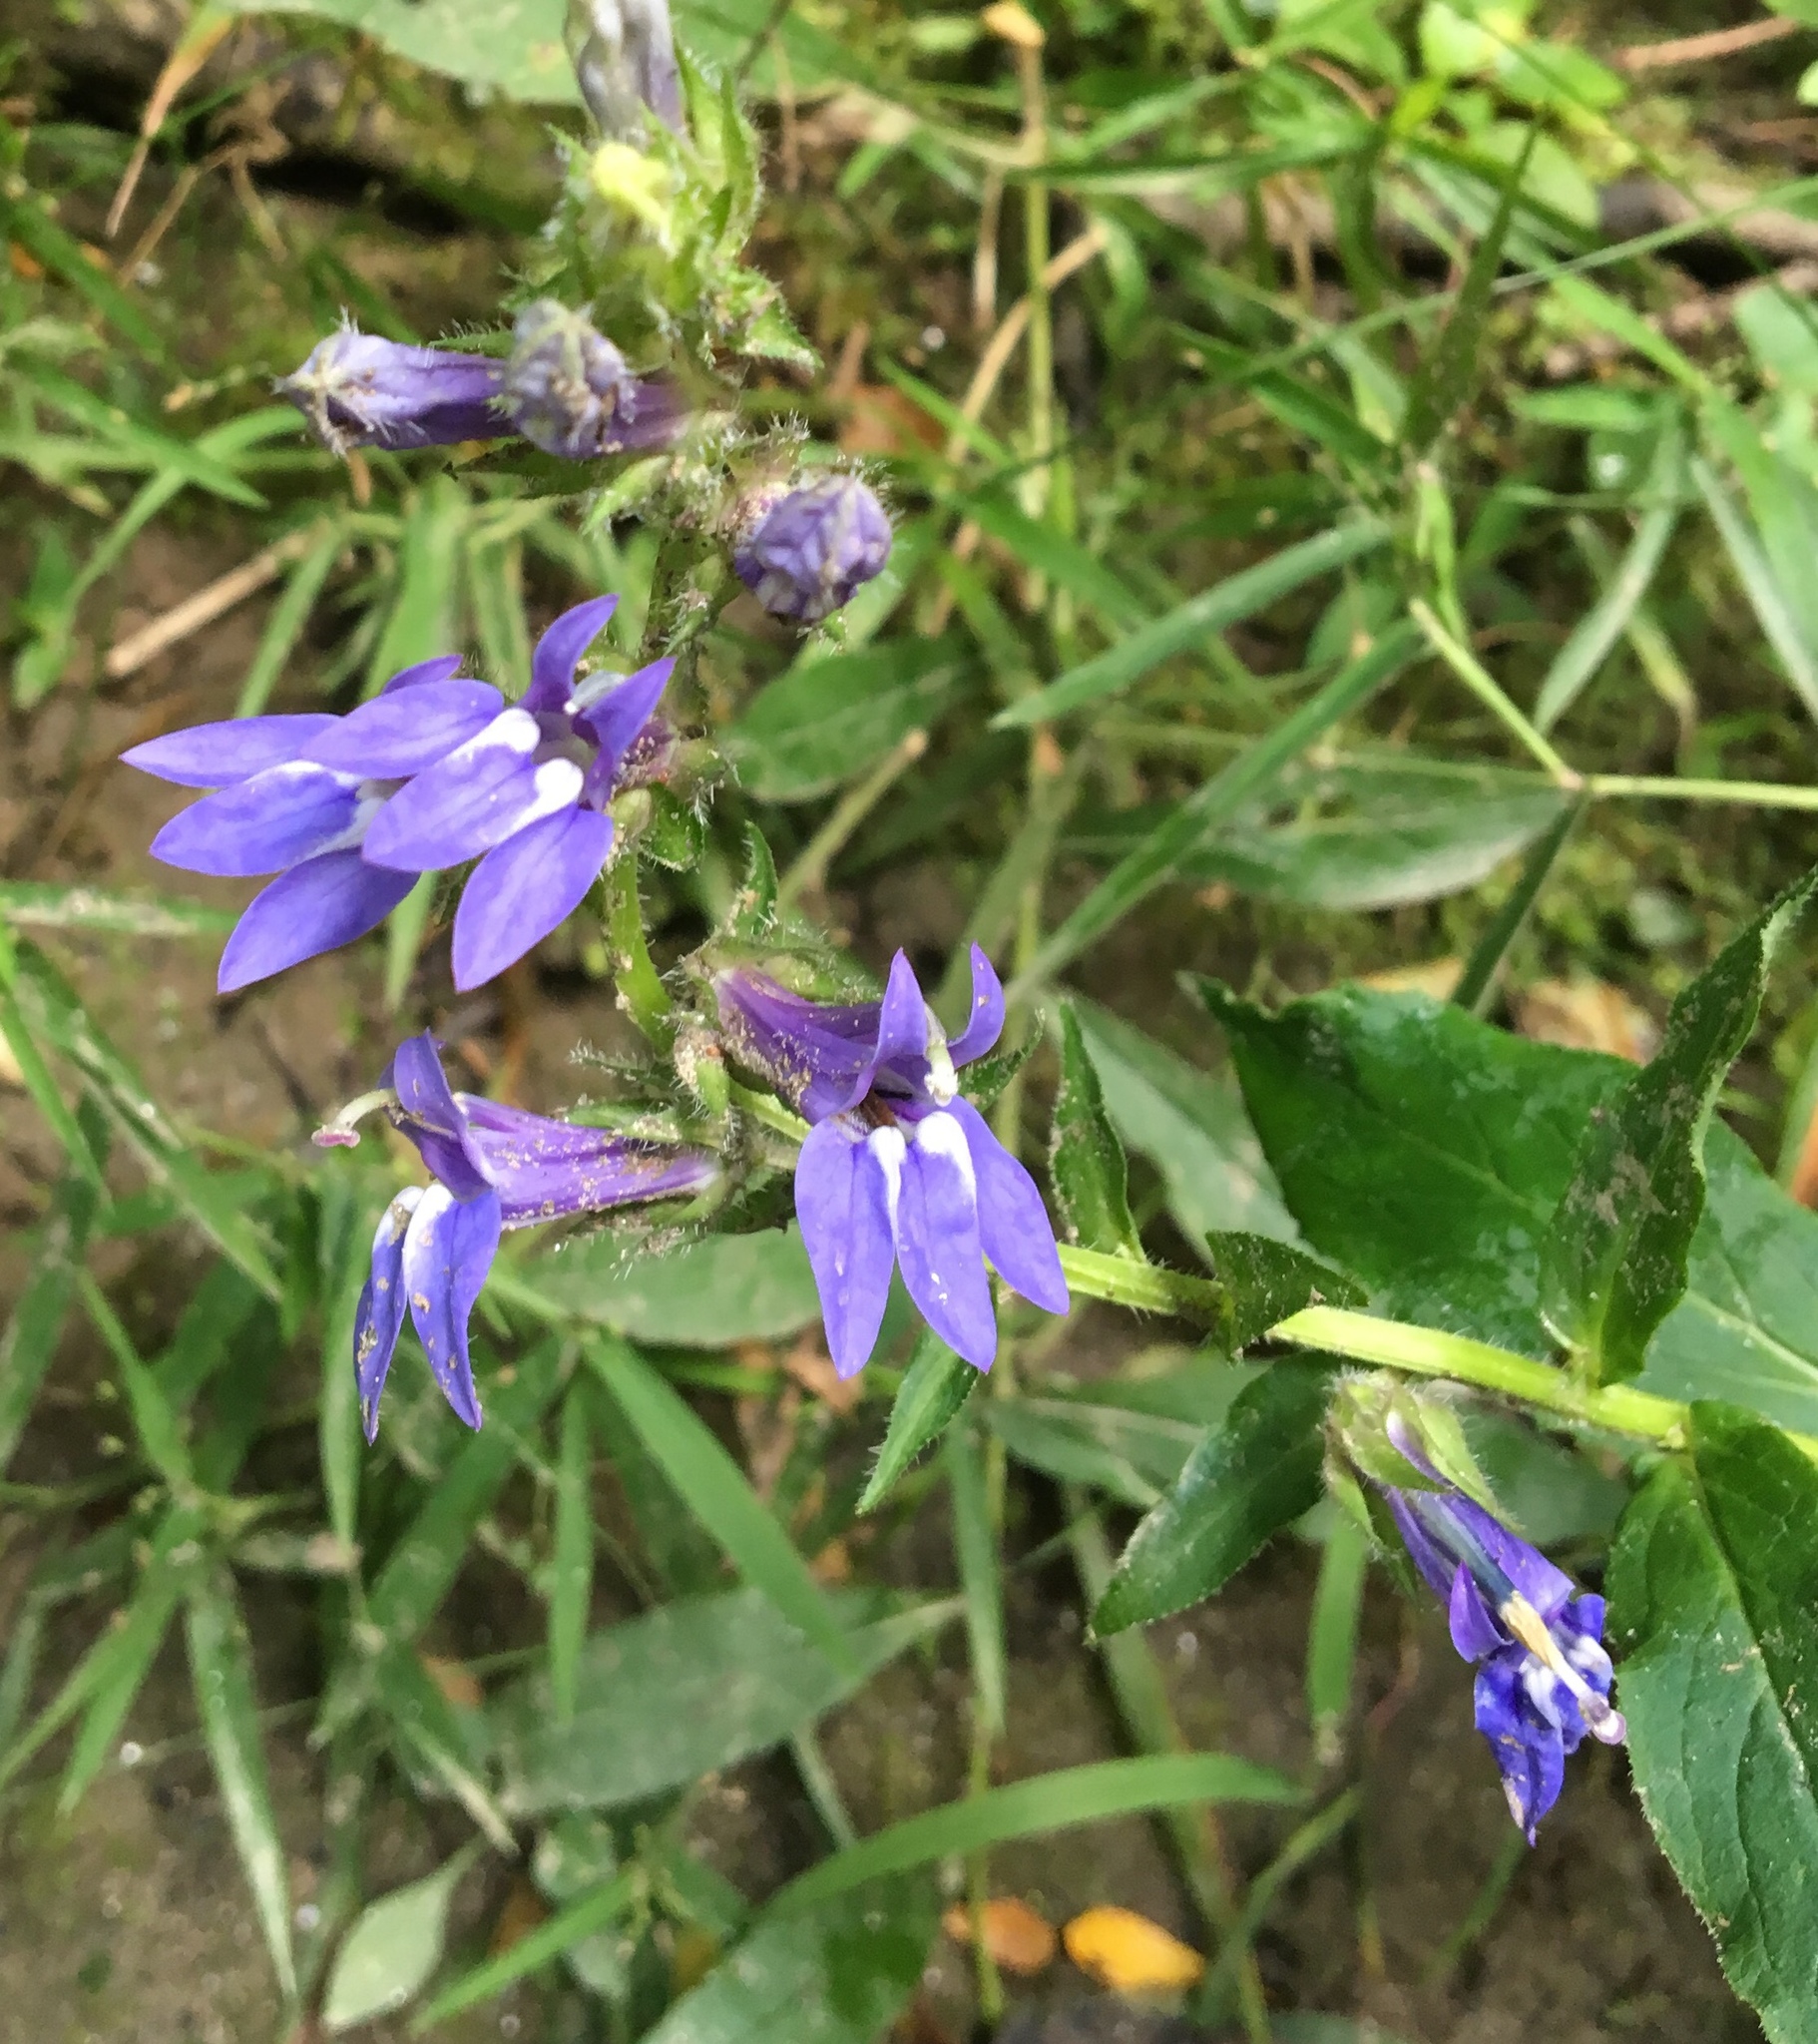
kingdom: Plantae
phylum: Tracheophyta
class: Magnoliopsida
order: Asterales
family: Campanulaceae
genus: Lobelia
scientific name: Lobelia siphilitica
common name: Great lobelia
